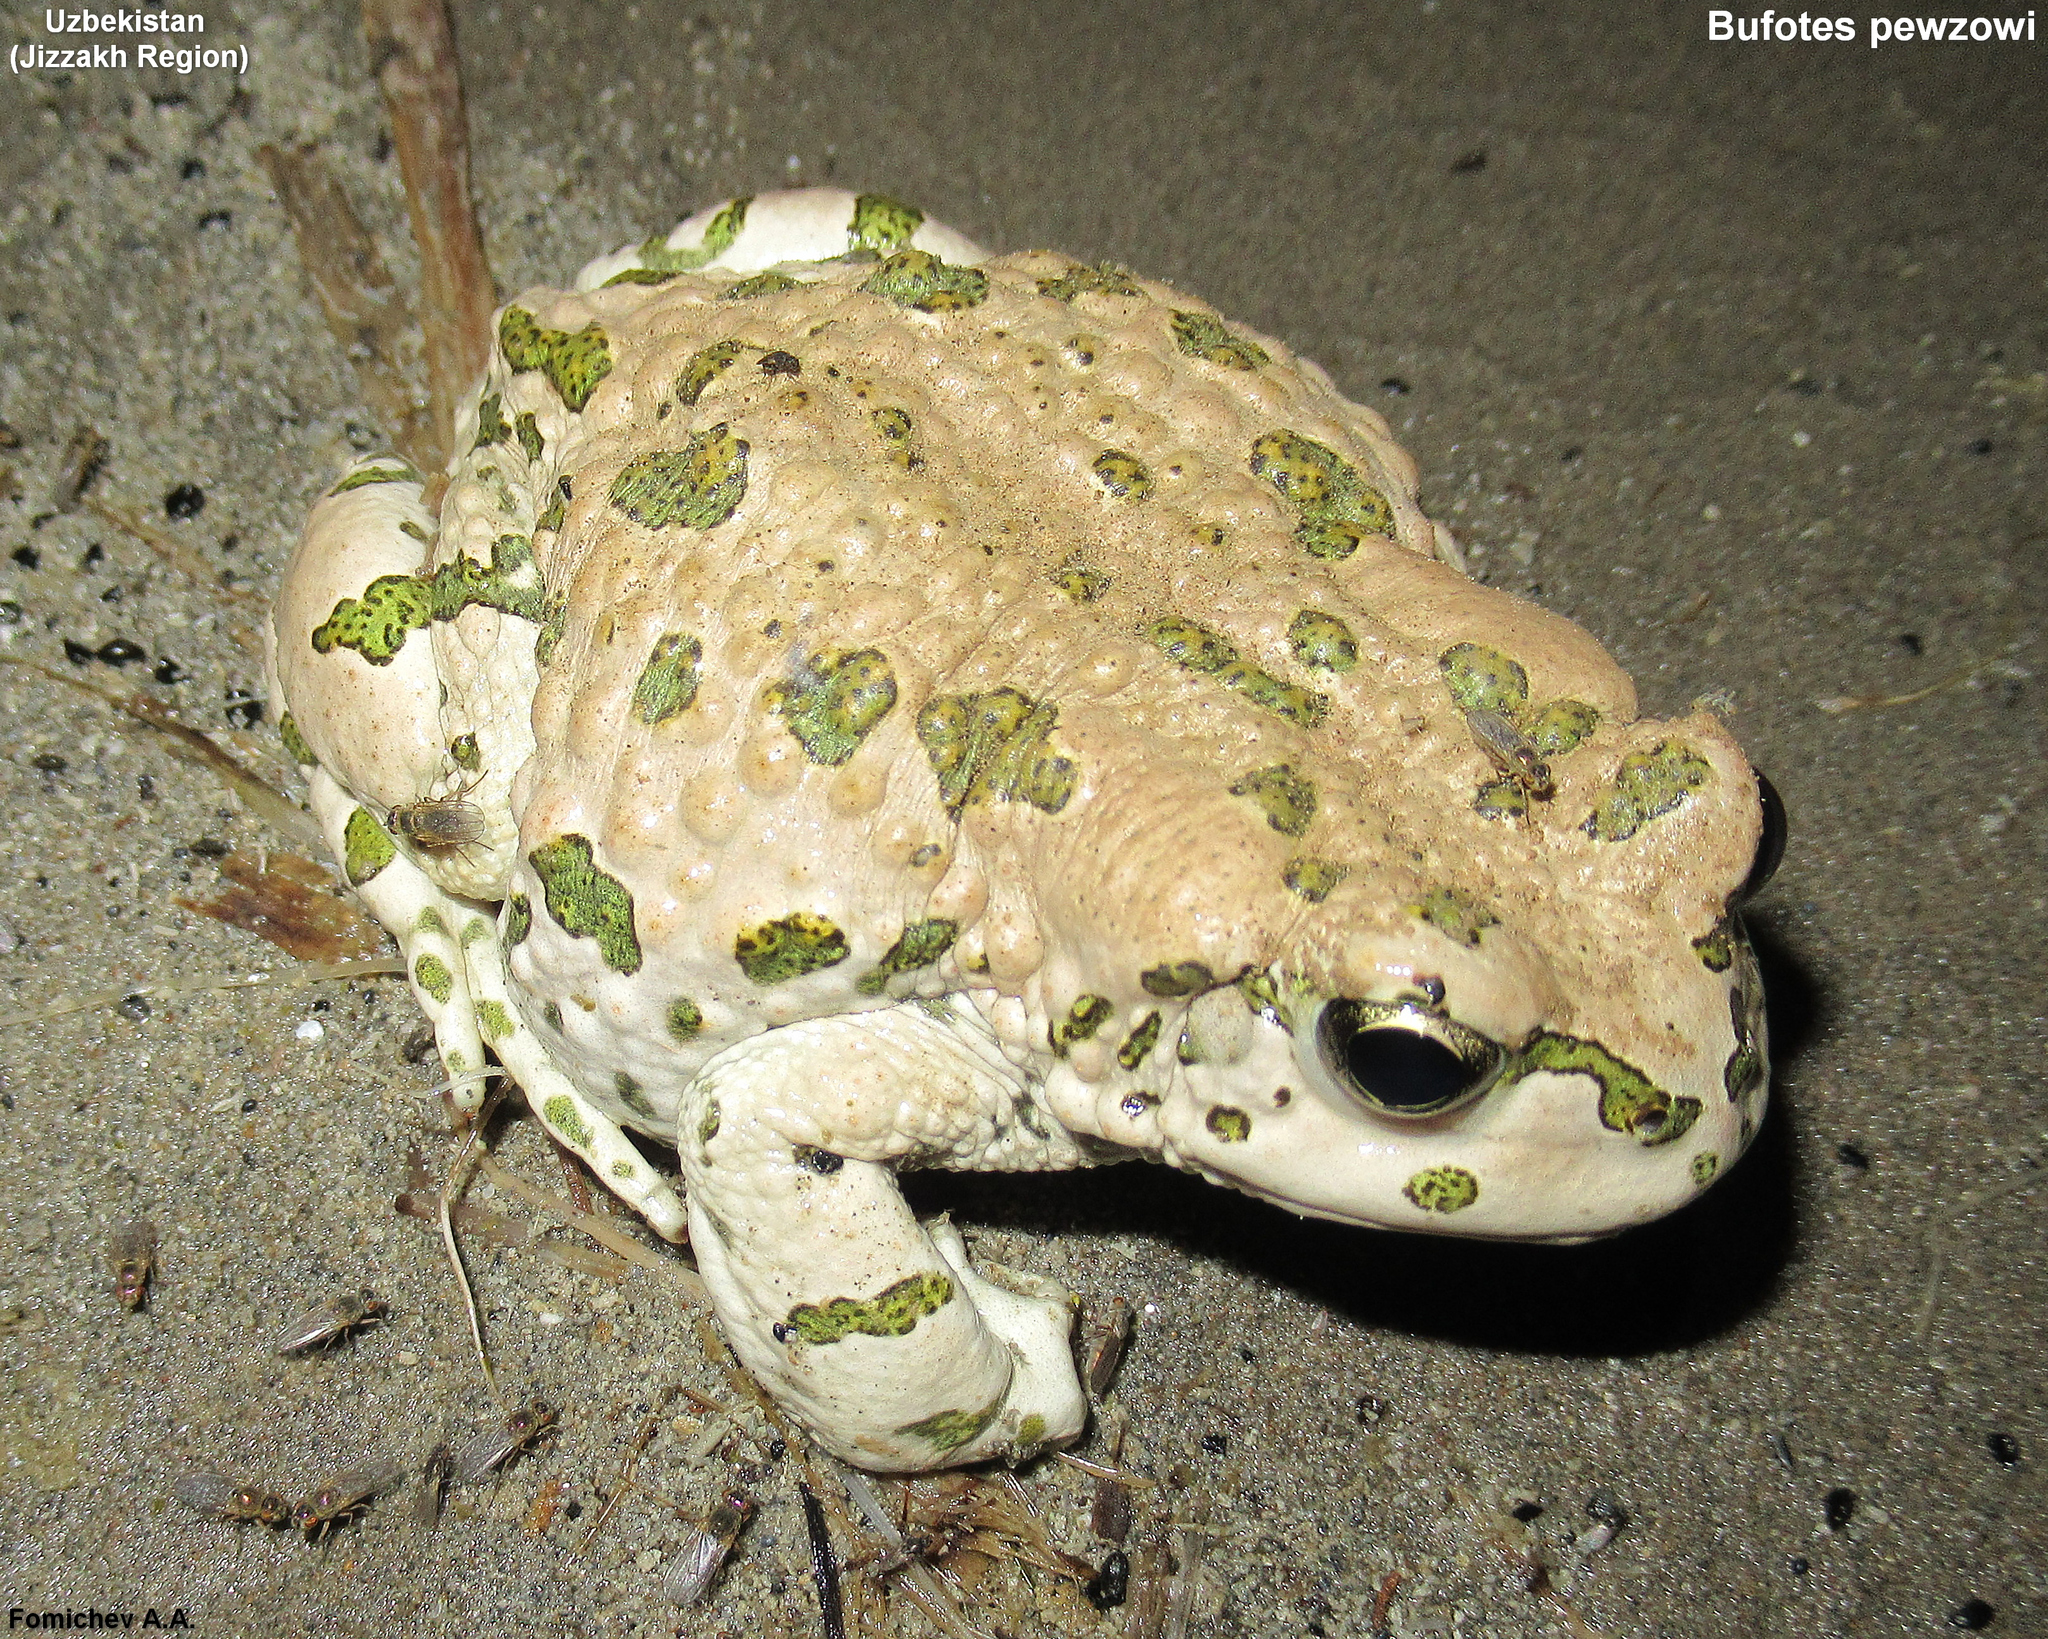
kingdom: Animalia
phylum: Chordata
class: Amphibia
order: Anura
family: Bufonidae
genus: Bufotes
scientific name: Bufotes pewzowi
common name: Xinjiang toad
